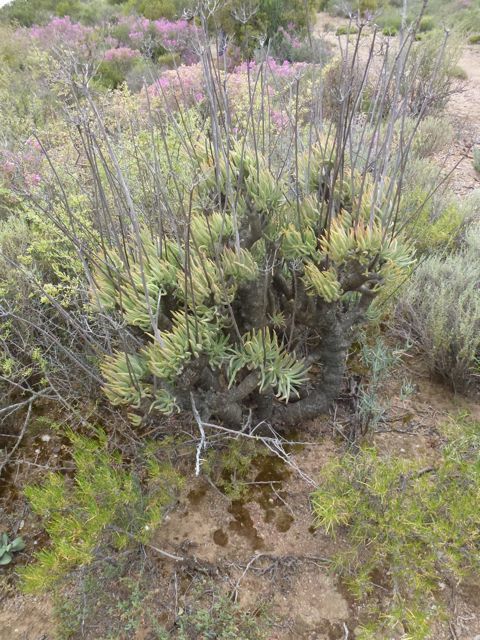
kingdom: Plantae
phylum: Tracheophyta
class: Magnoliopsida
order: Saxifragales
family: Crassulaceae
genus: Tylecodon
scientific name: Tylecodon cacaliodes
